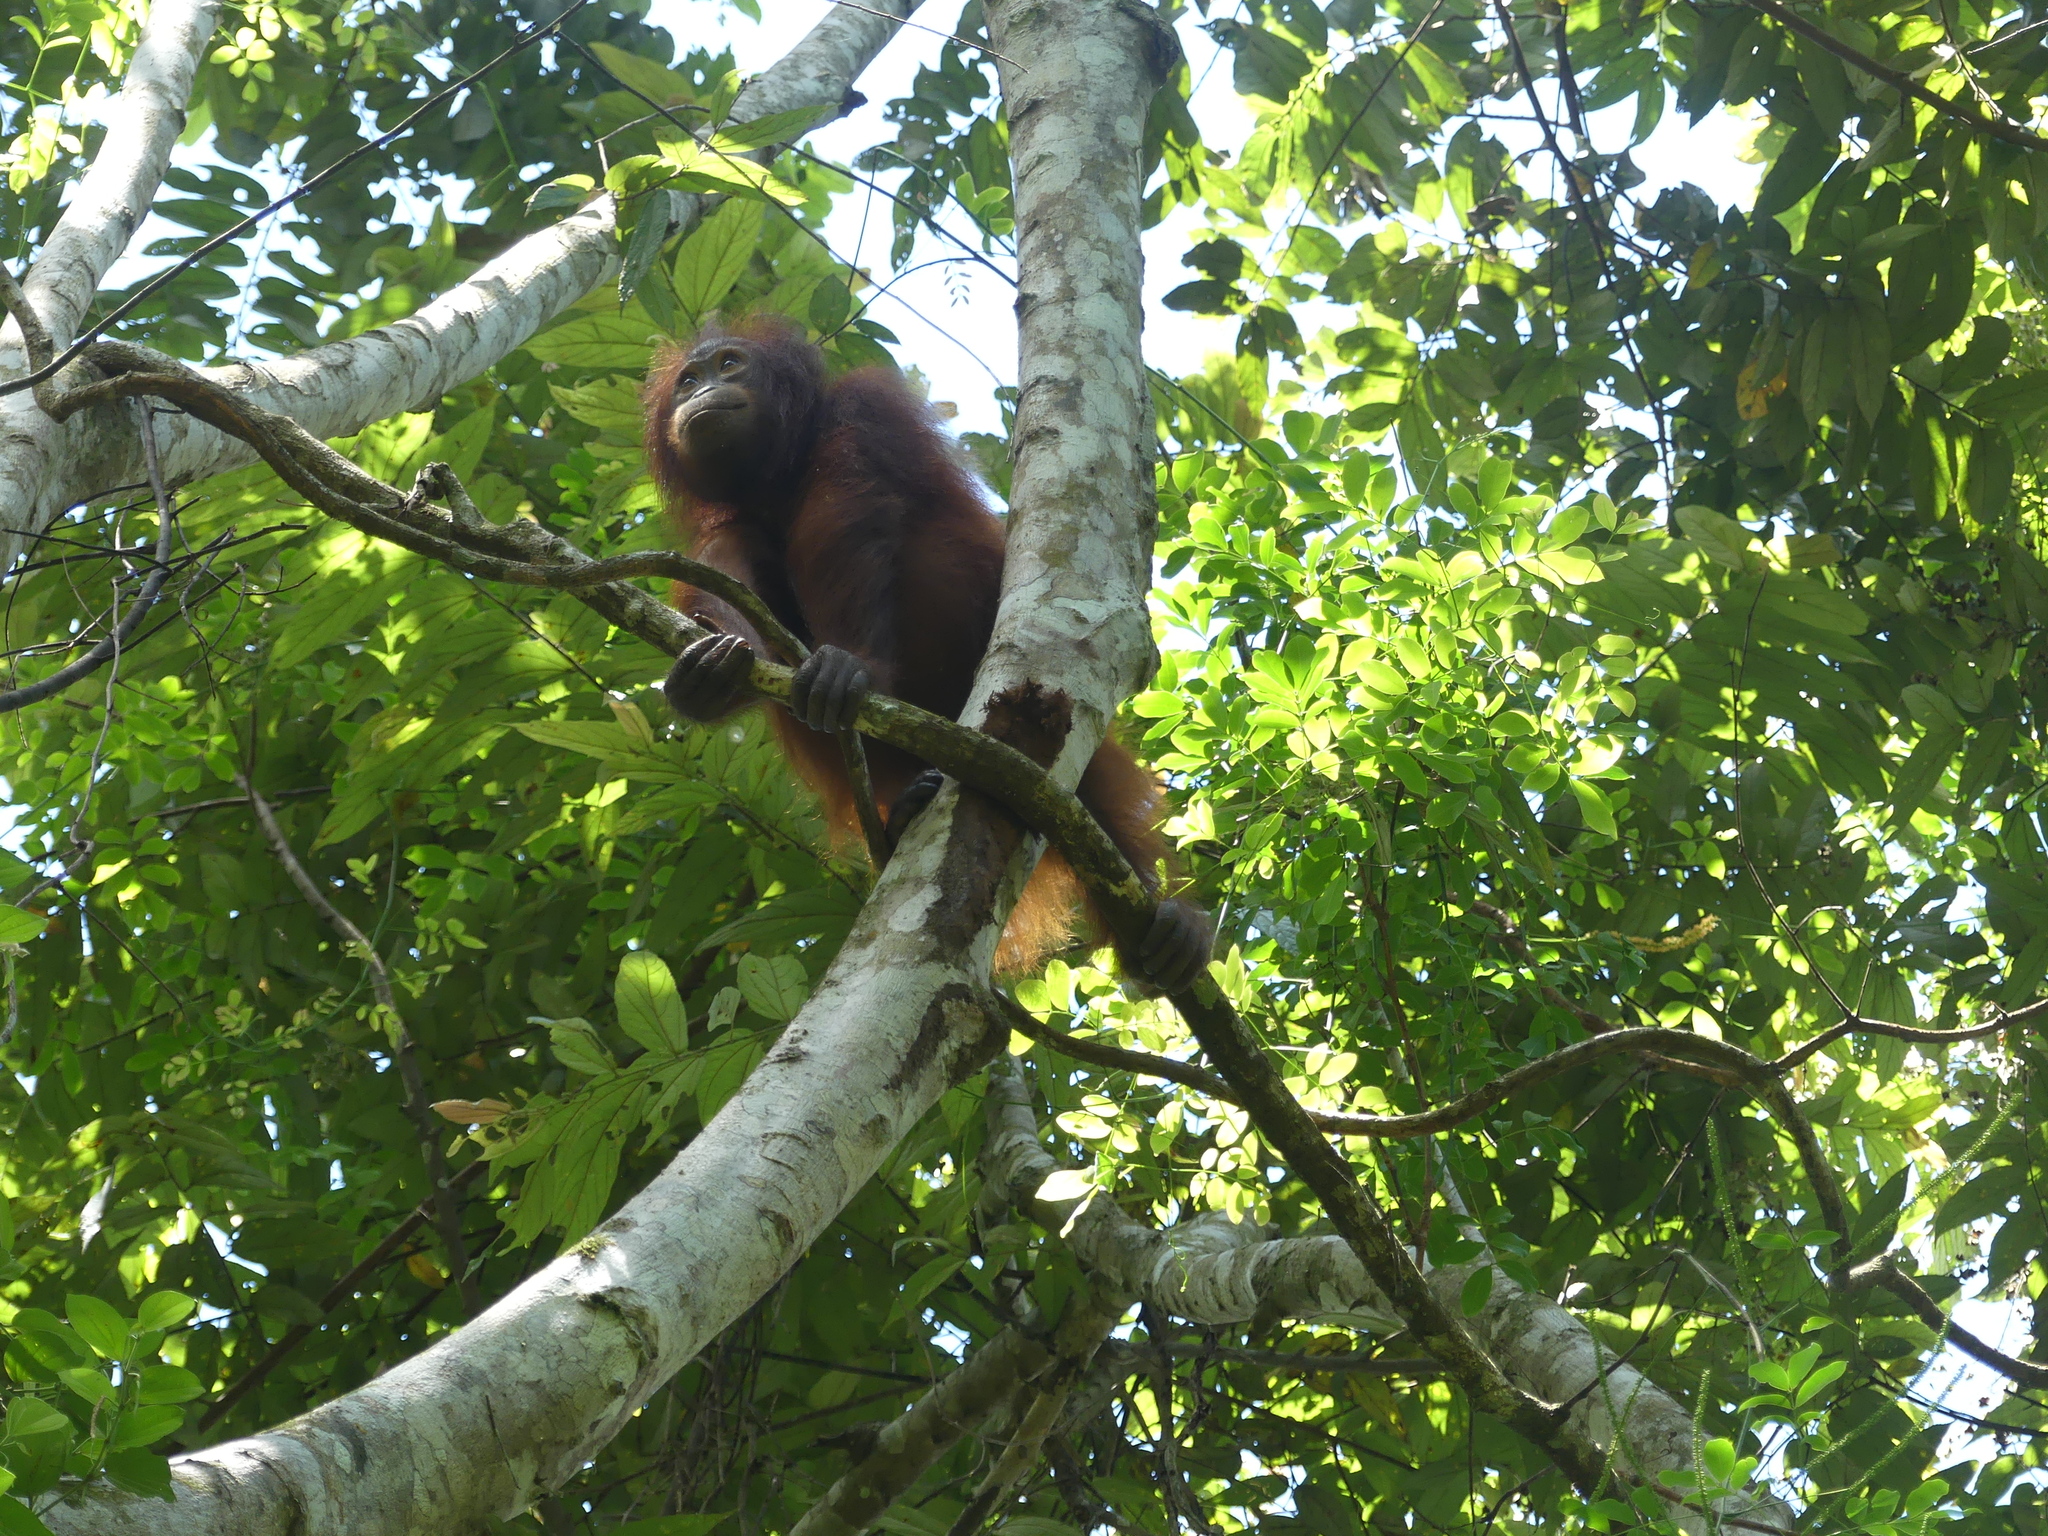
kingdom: Animalia
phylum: Chordata
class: Mammalia
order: Primates
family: Hominidae
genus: Pongo
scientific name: Pongo pygmaeus
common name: Bornean orangutan
